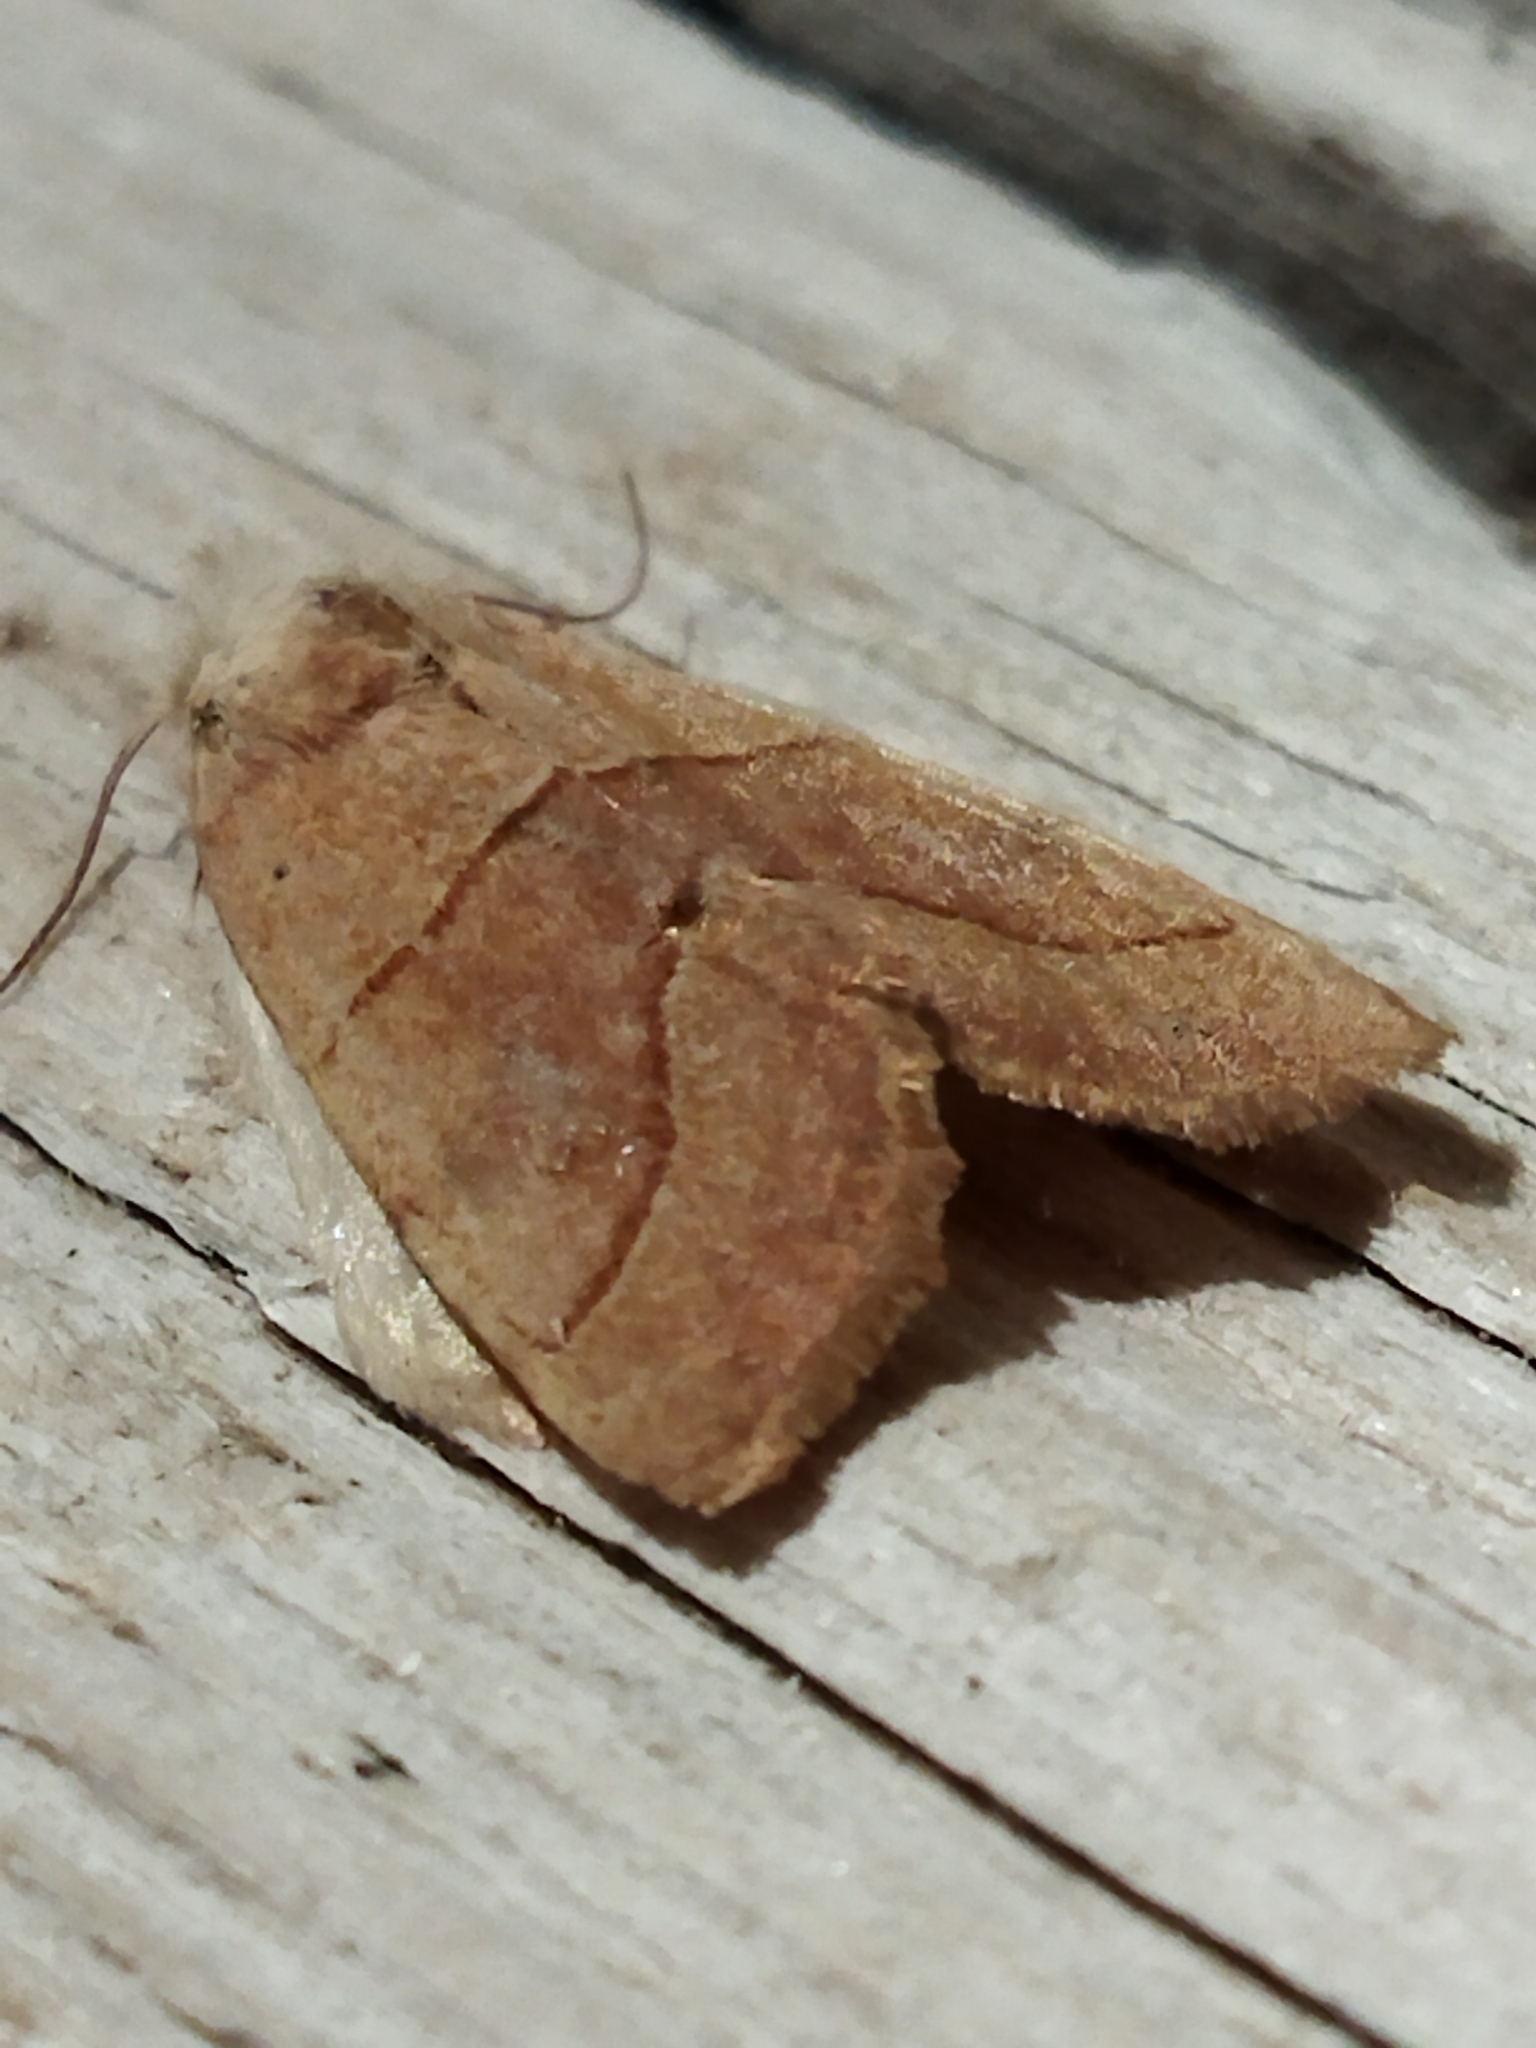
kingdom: Animalia
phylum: Arthropoda
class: Insecta
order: Lepidoptera
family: Noctuidae
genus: Atethmia
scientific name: Atethmia centrago
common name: Centre-barred sallow
